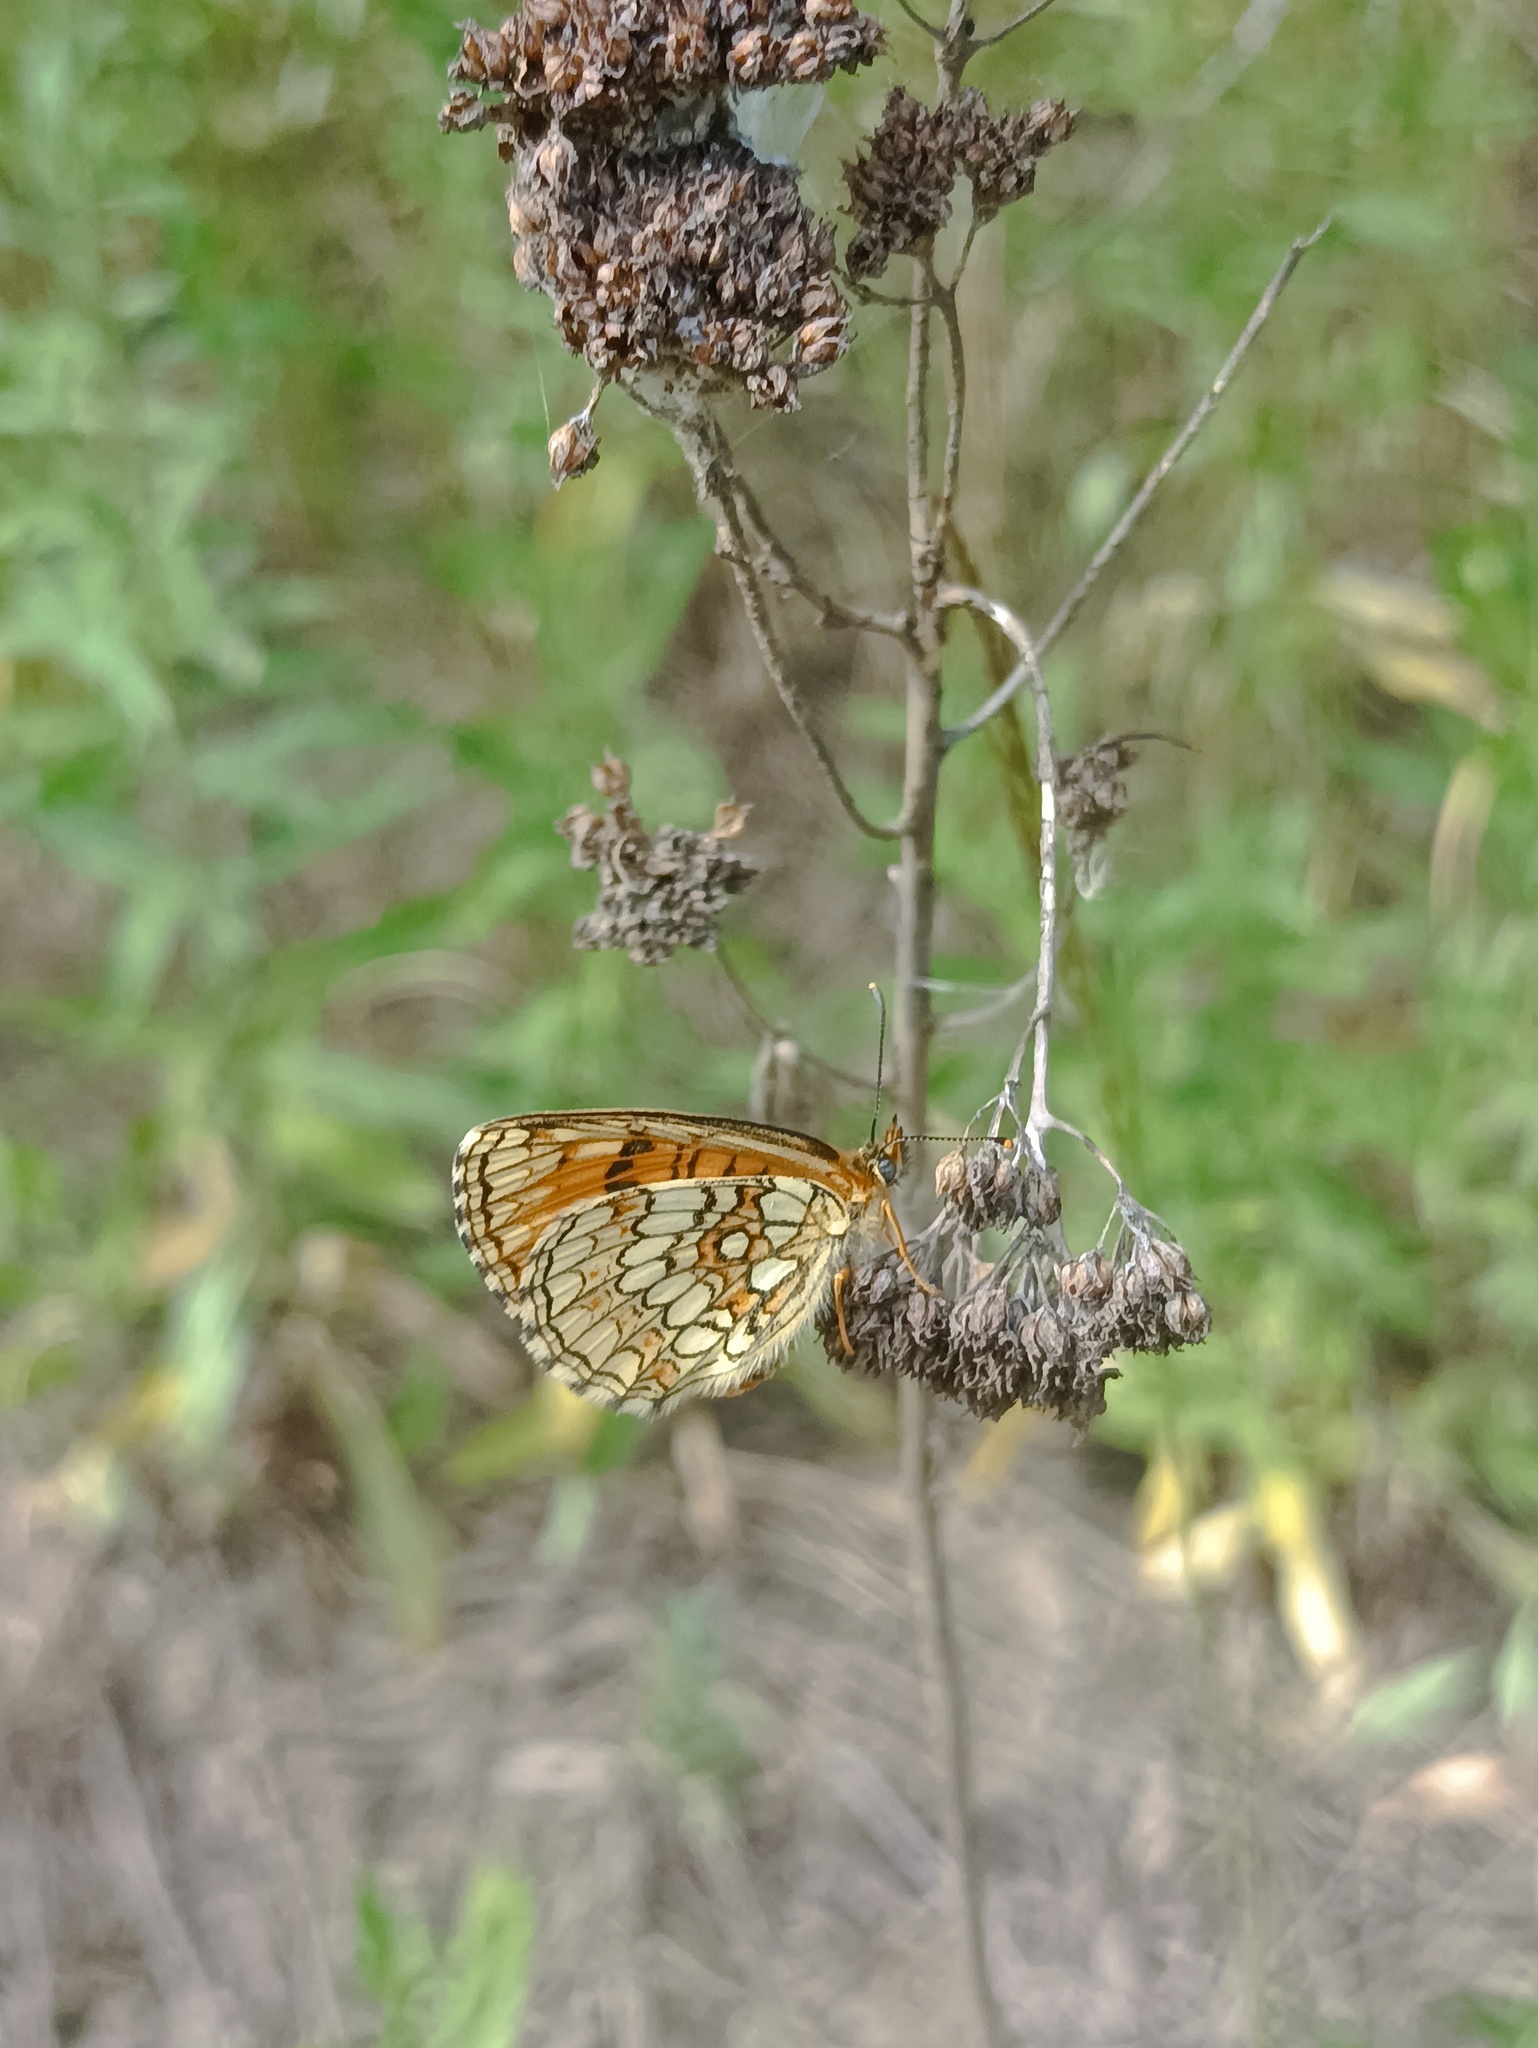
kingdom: Animalia
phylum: Arthropoda
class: Insecta
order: Lepidoptera
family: Nymphalidae
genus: Melitaea
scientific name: Melitaea athalia
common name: Heath fritillary
